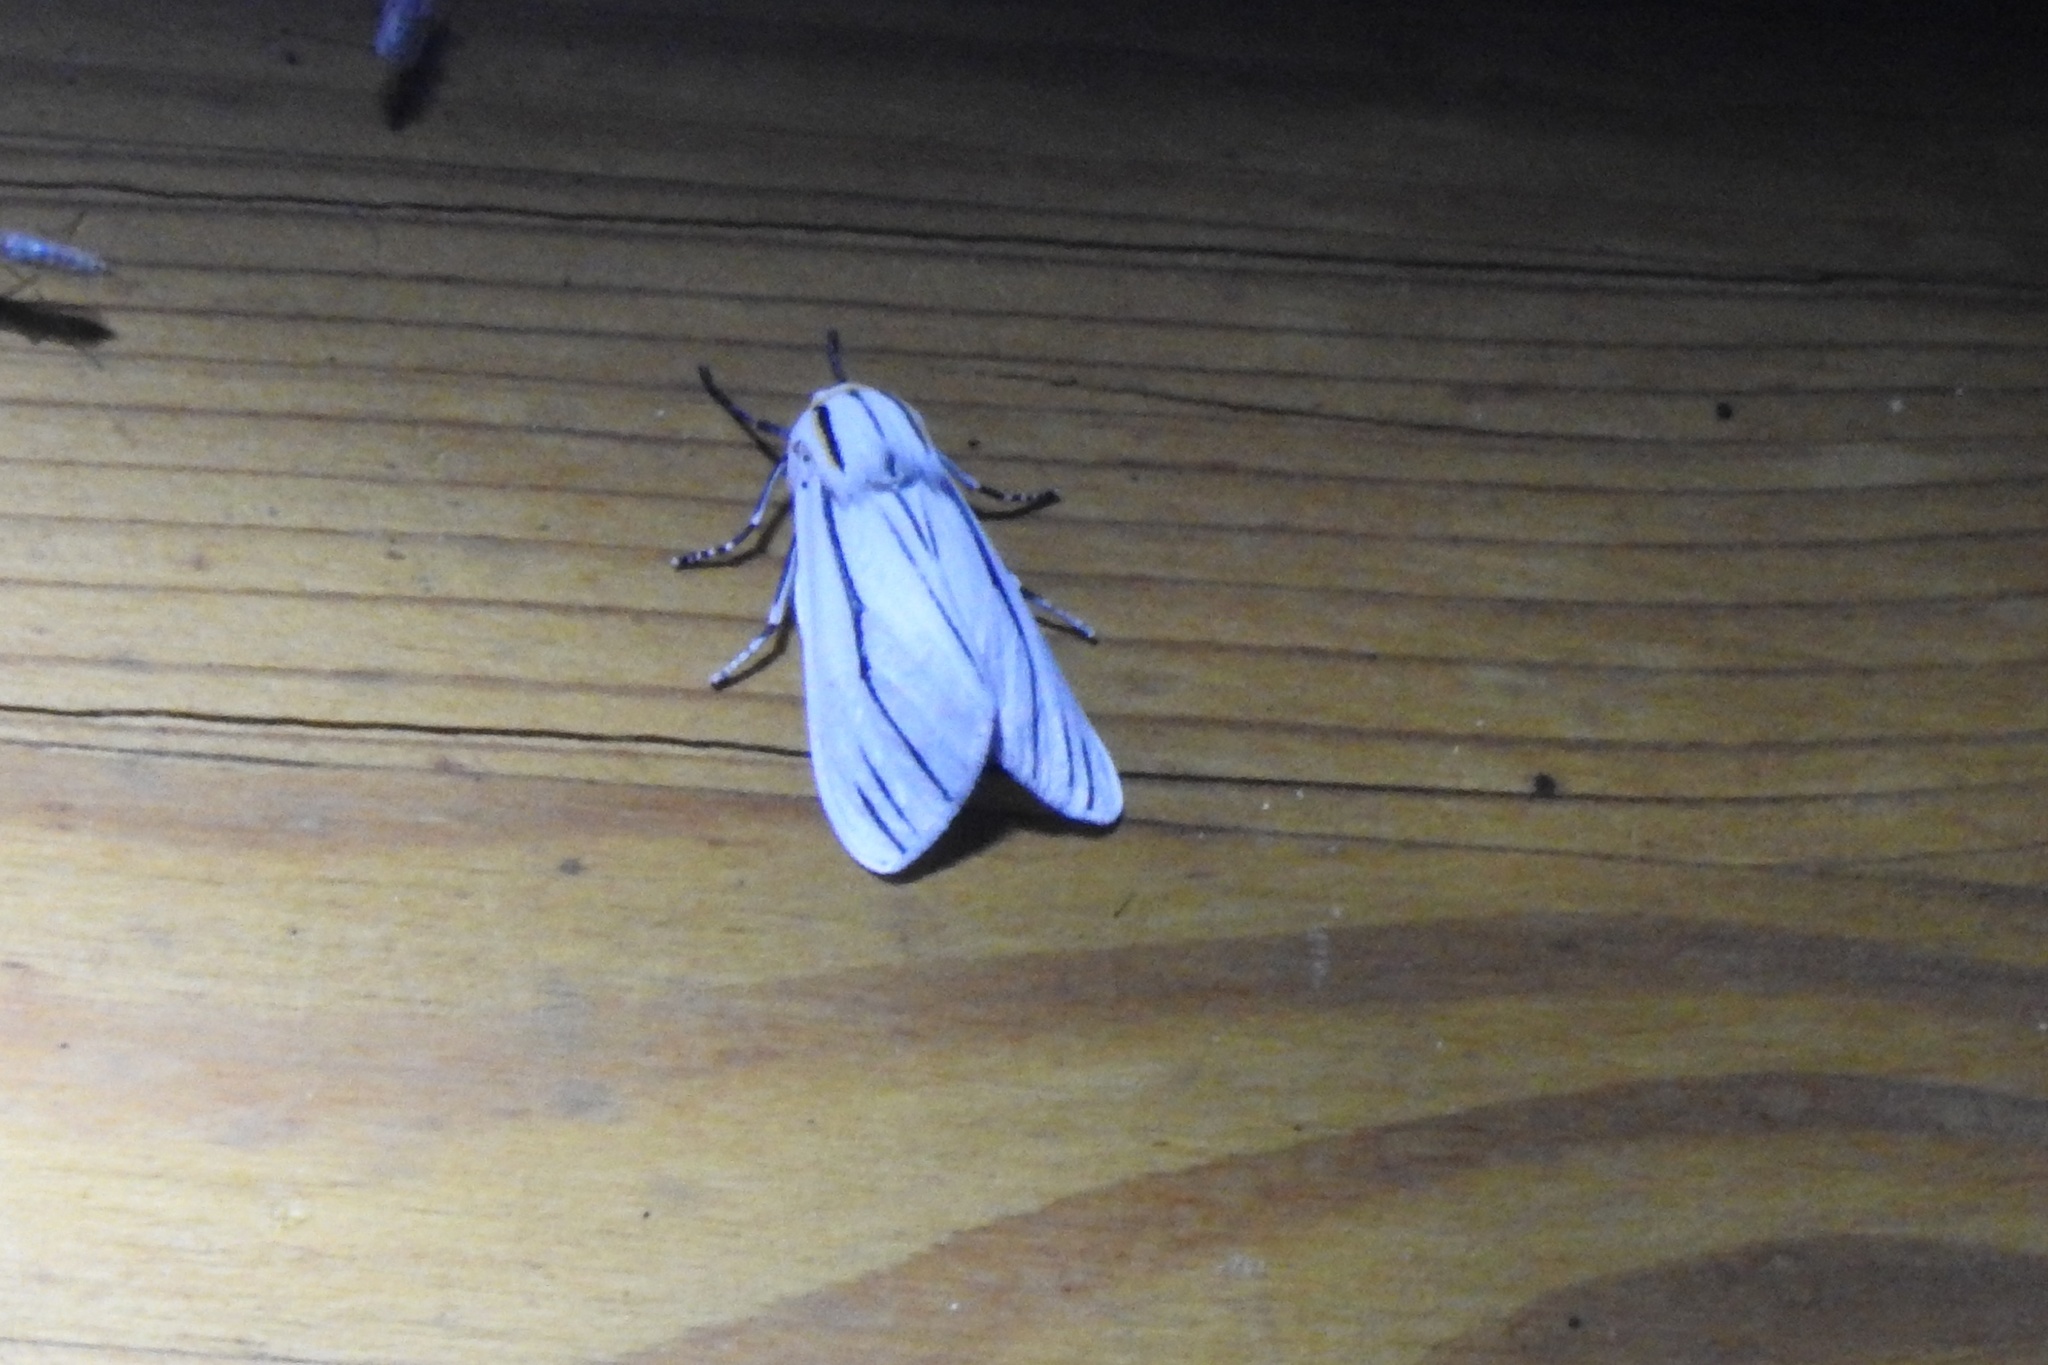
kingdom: Animalia
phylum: Arthropoda
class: Insecta
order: Lepidoptera
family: Erebidae
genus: Ectypia
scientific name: Ectypia clio
